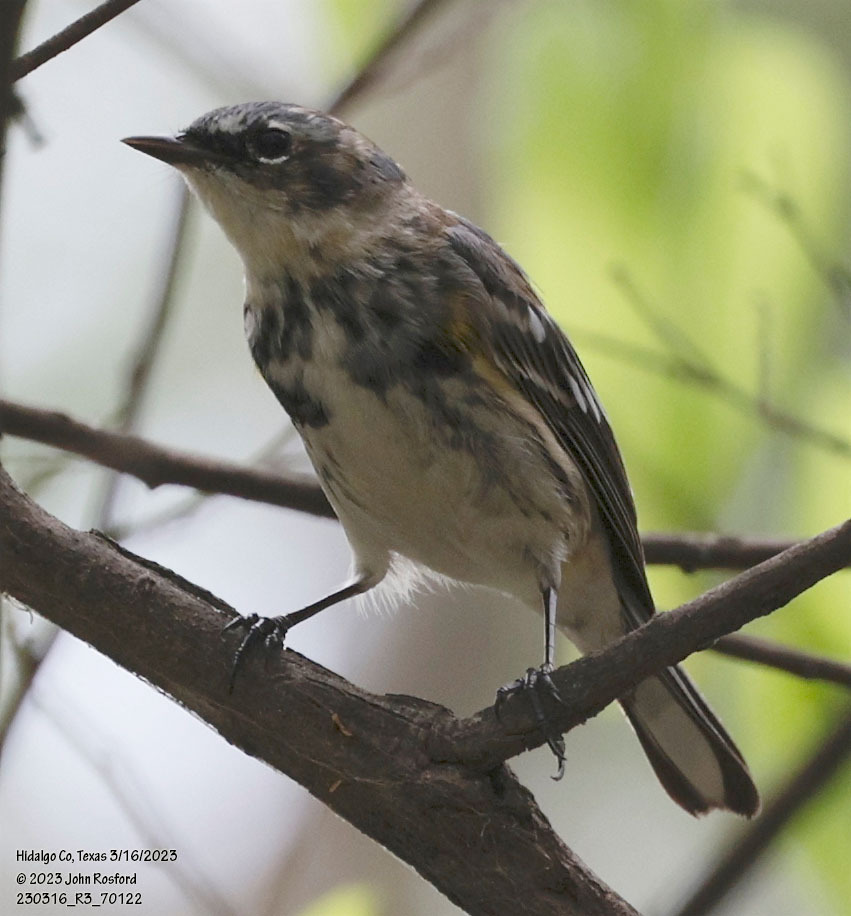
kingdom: Animalia
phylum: Chordata
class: Aves
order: Passeriformes
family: Parulidae
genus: Setophaga
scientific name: Setophaga coronata
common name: Myrtle warbler
